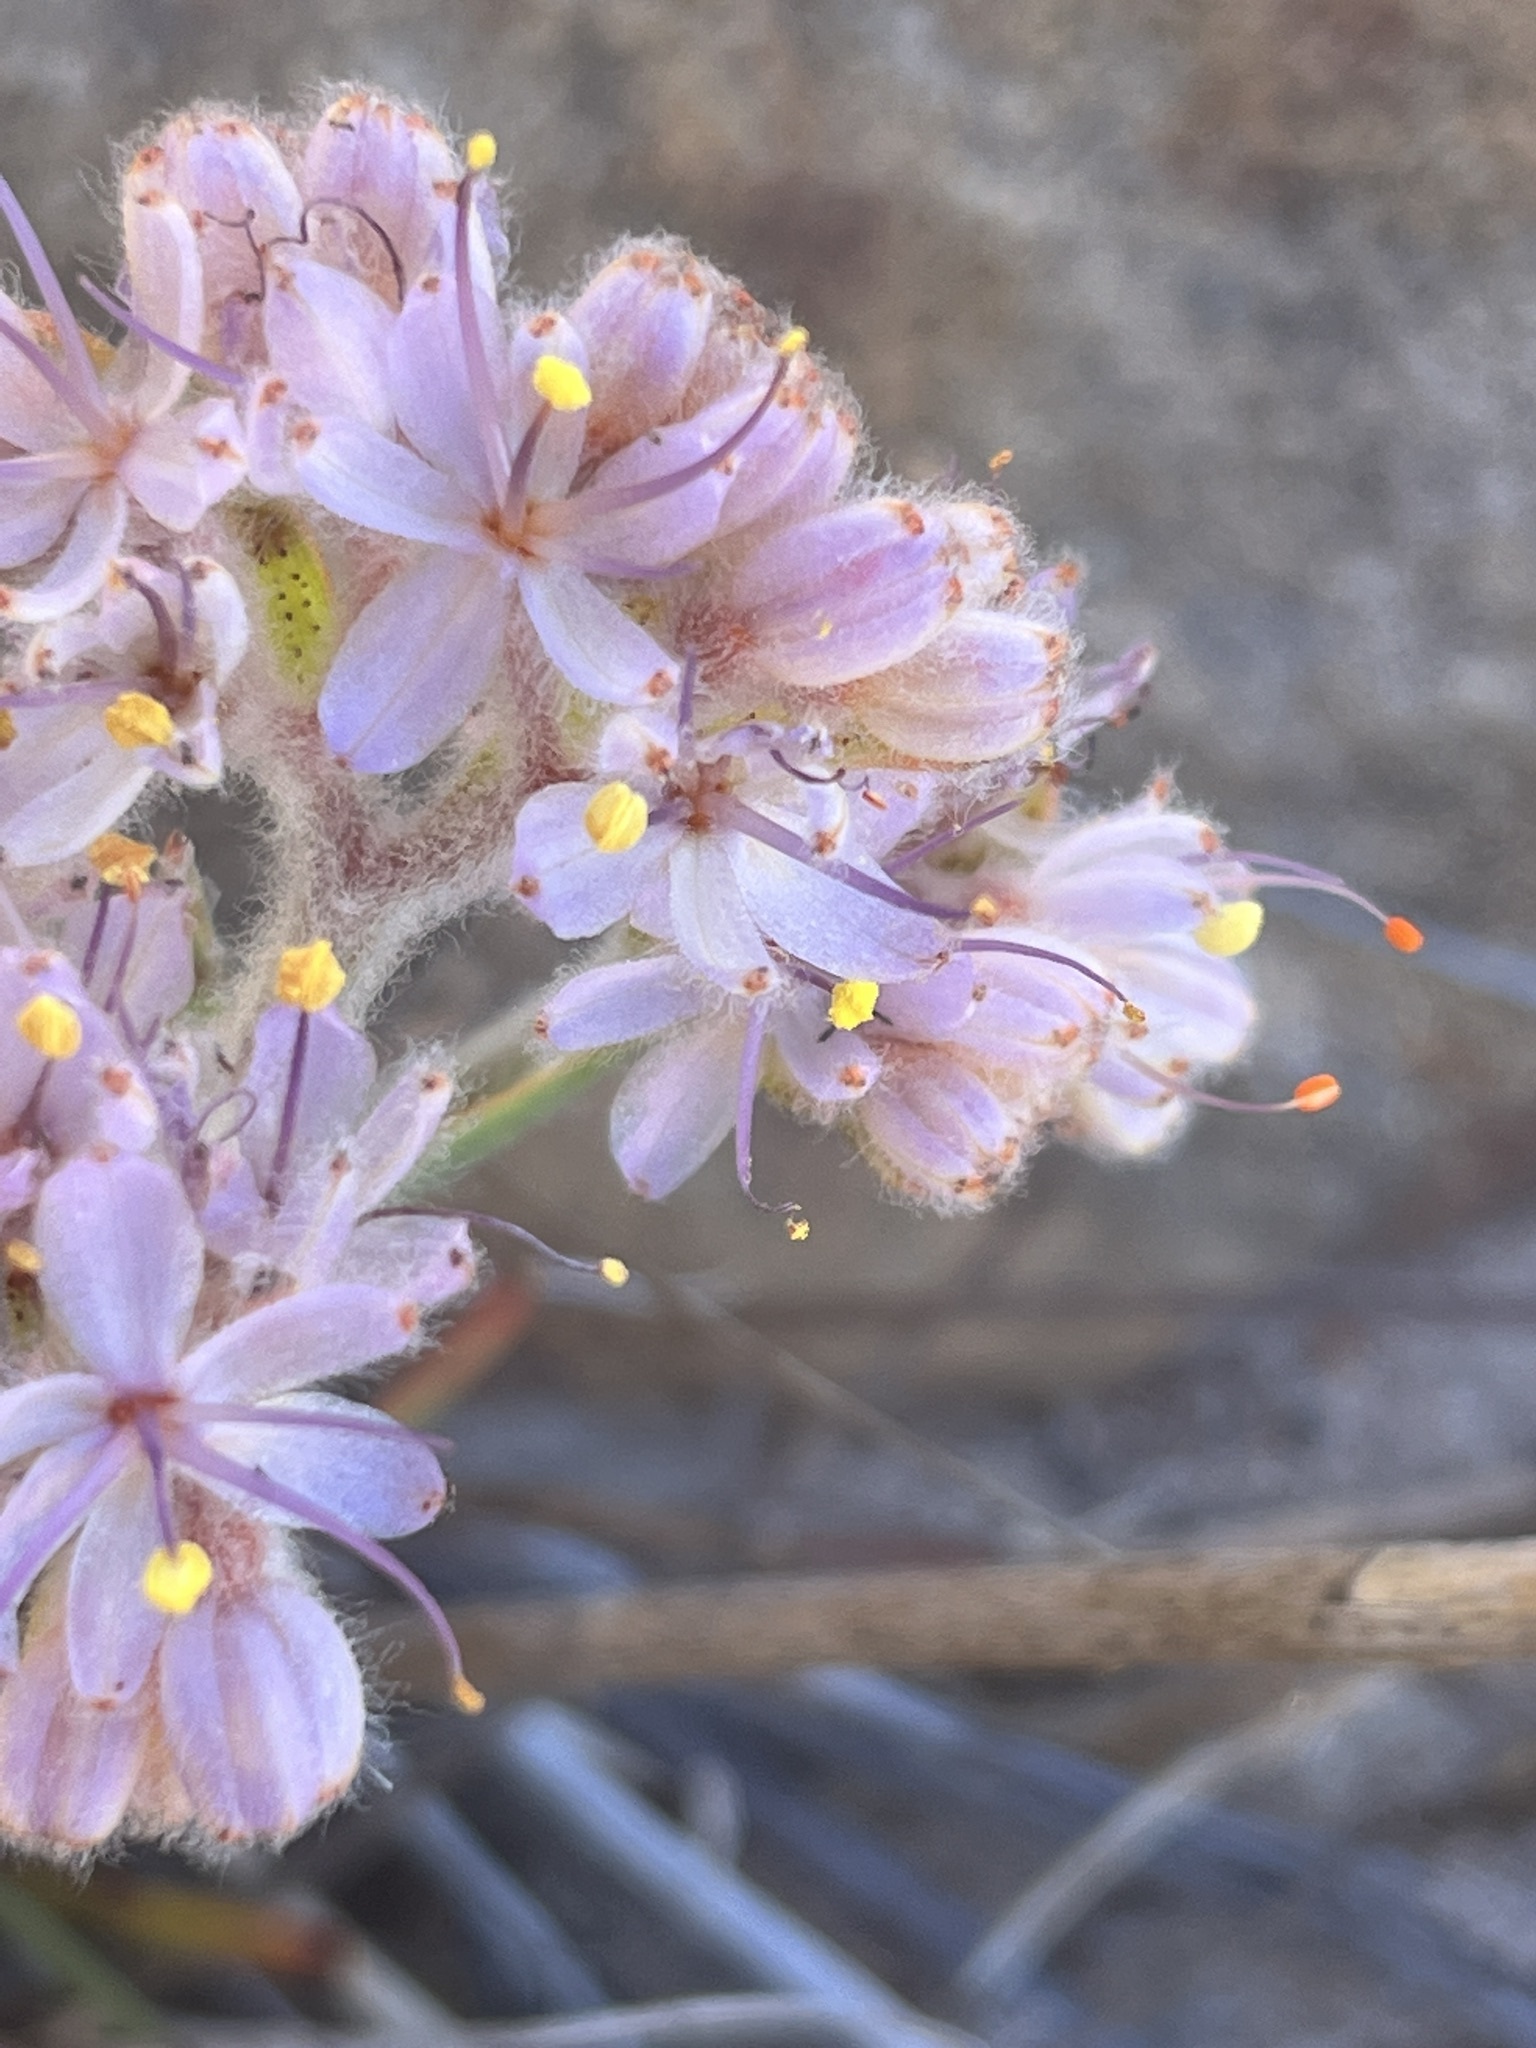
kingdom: Plantae
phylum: Tracheophyta
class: Liliopsida
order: Commelinales
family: Haemodoraceae
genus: Dilatris
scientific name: Dilatris ixioides
